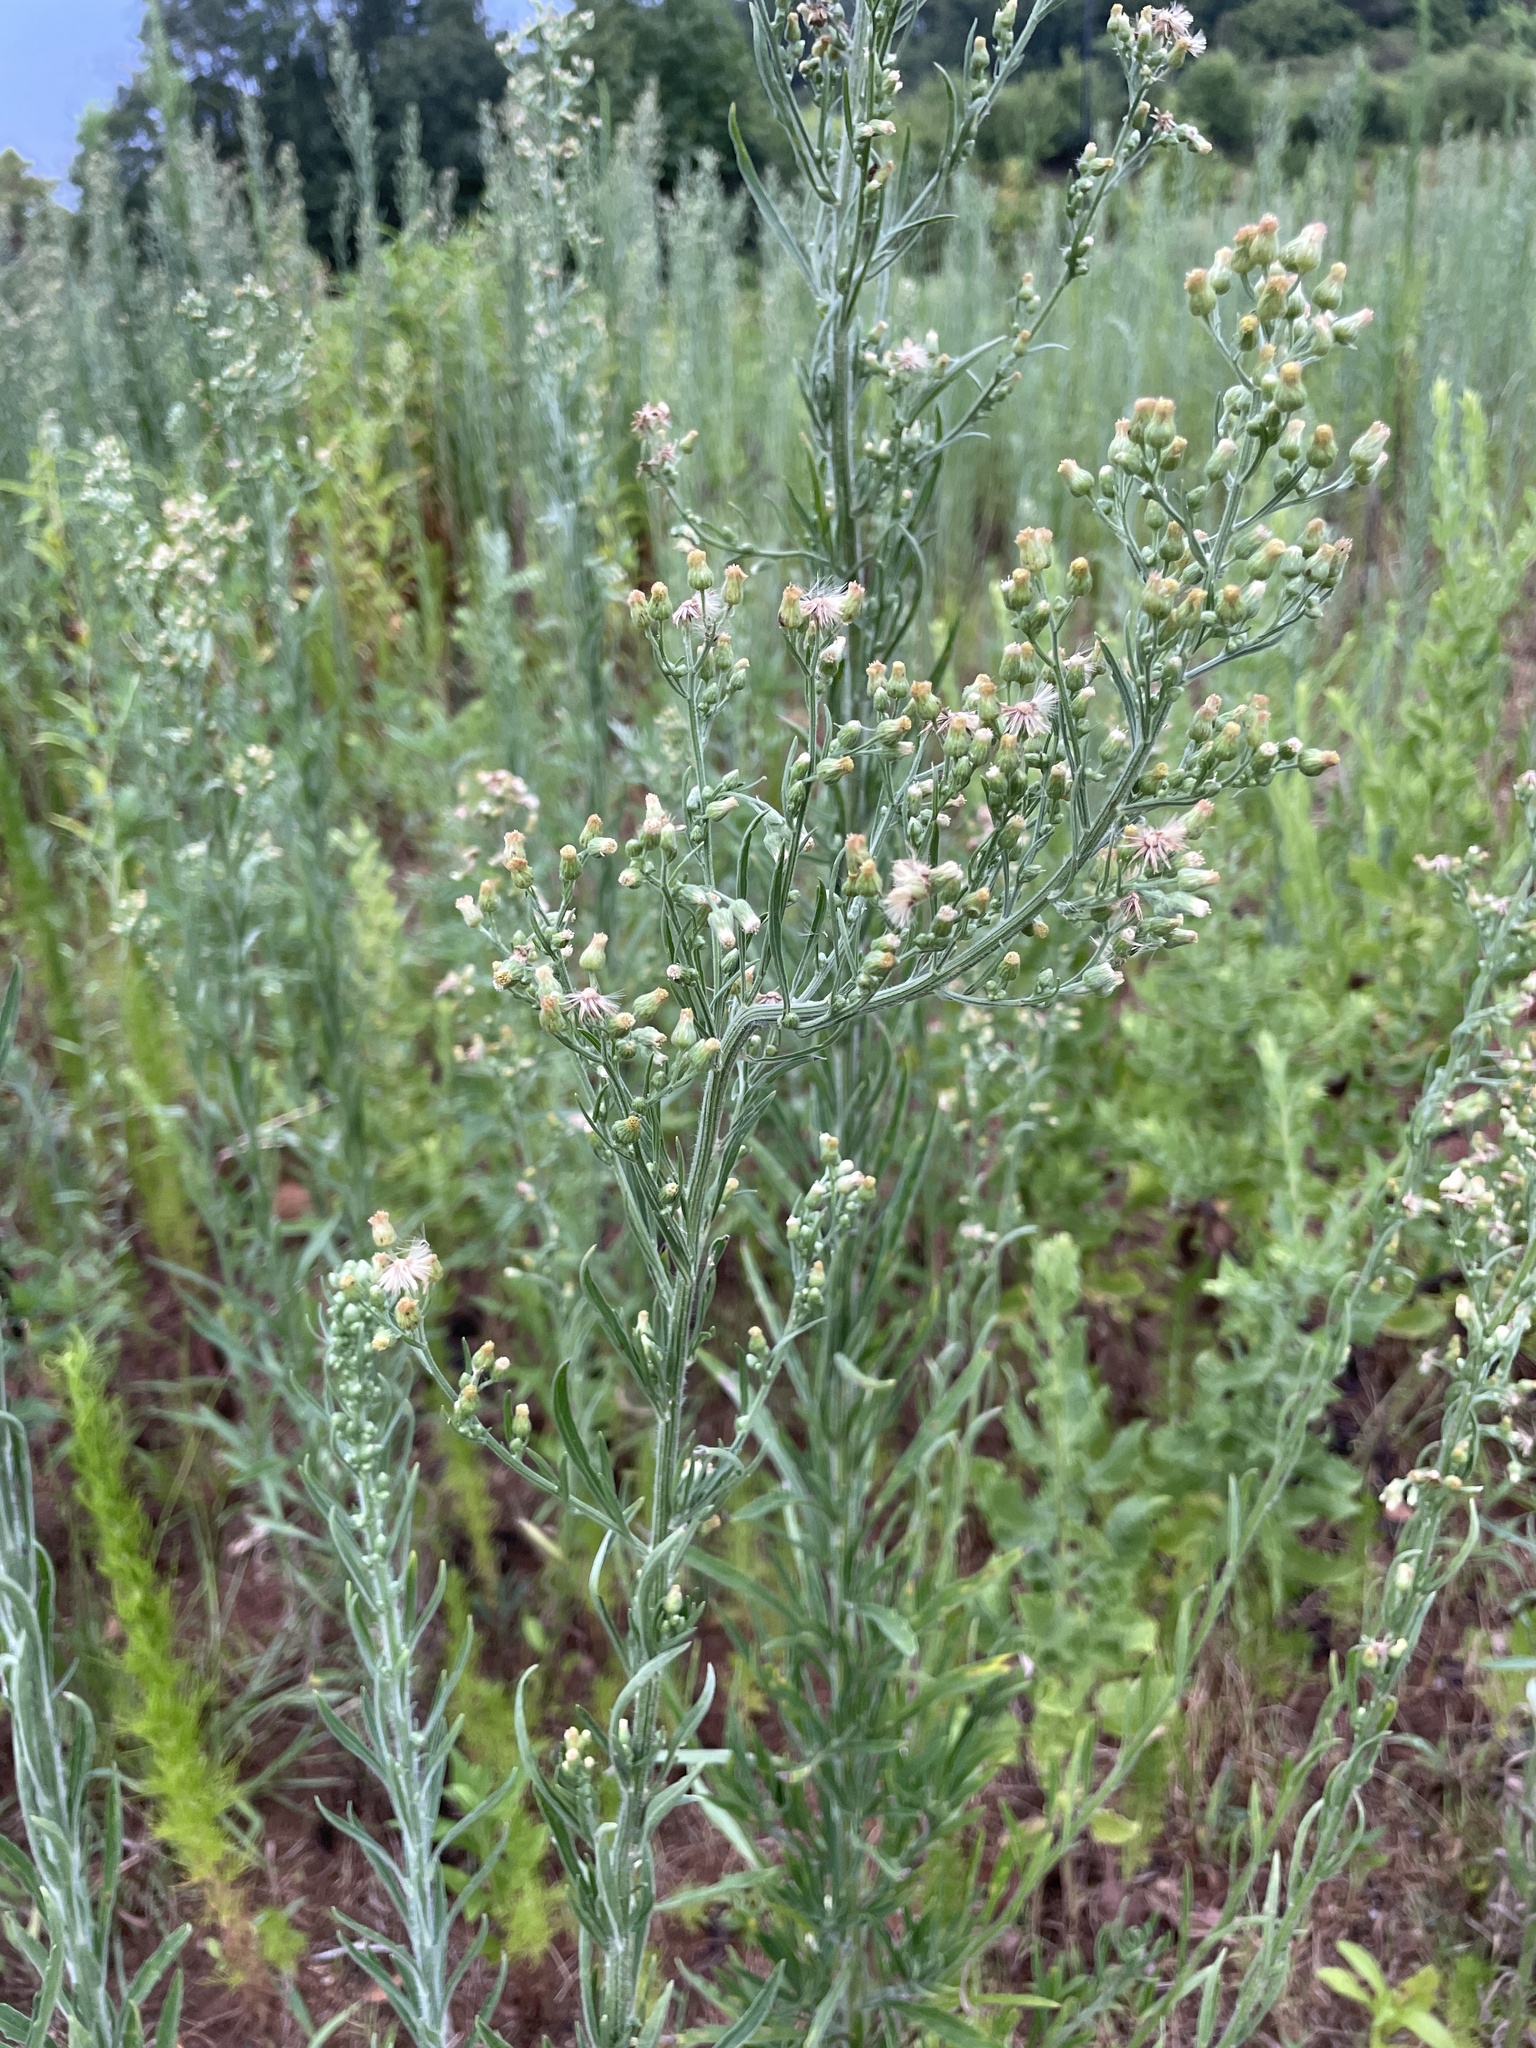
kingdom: Plantae
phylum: Tracheophyta
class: Magnoliopsida
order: Asterales
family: Asteraceae
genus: Erigeron
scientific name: Erigeron canadensis
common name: Canadian fleabane
